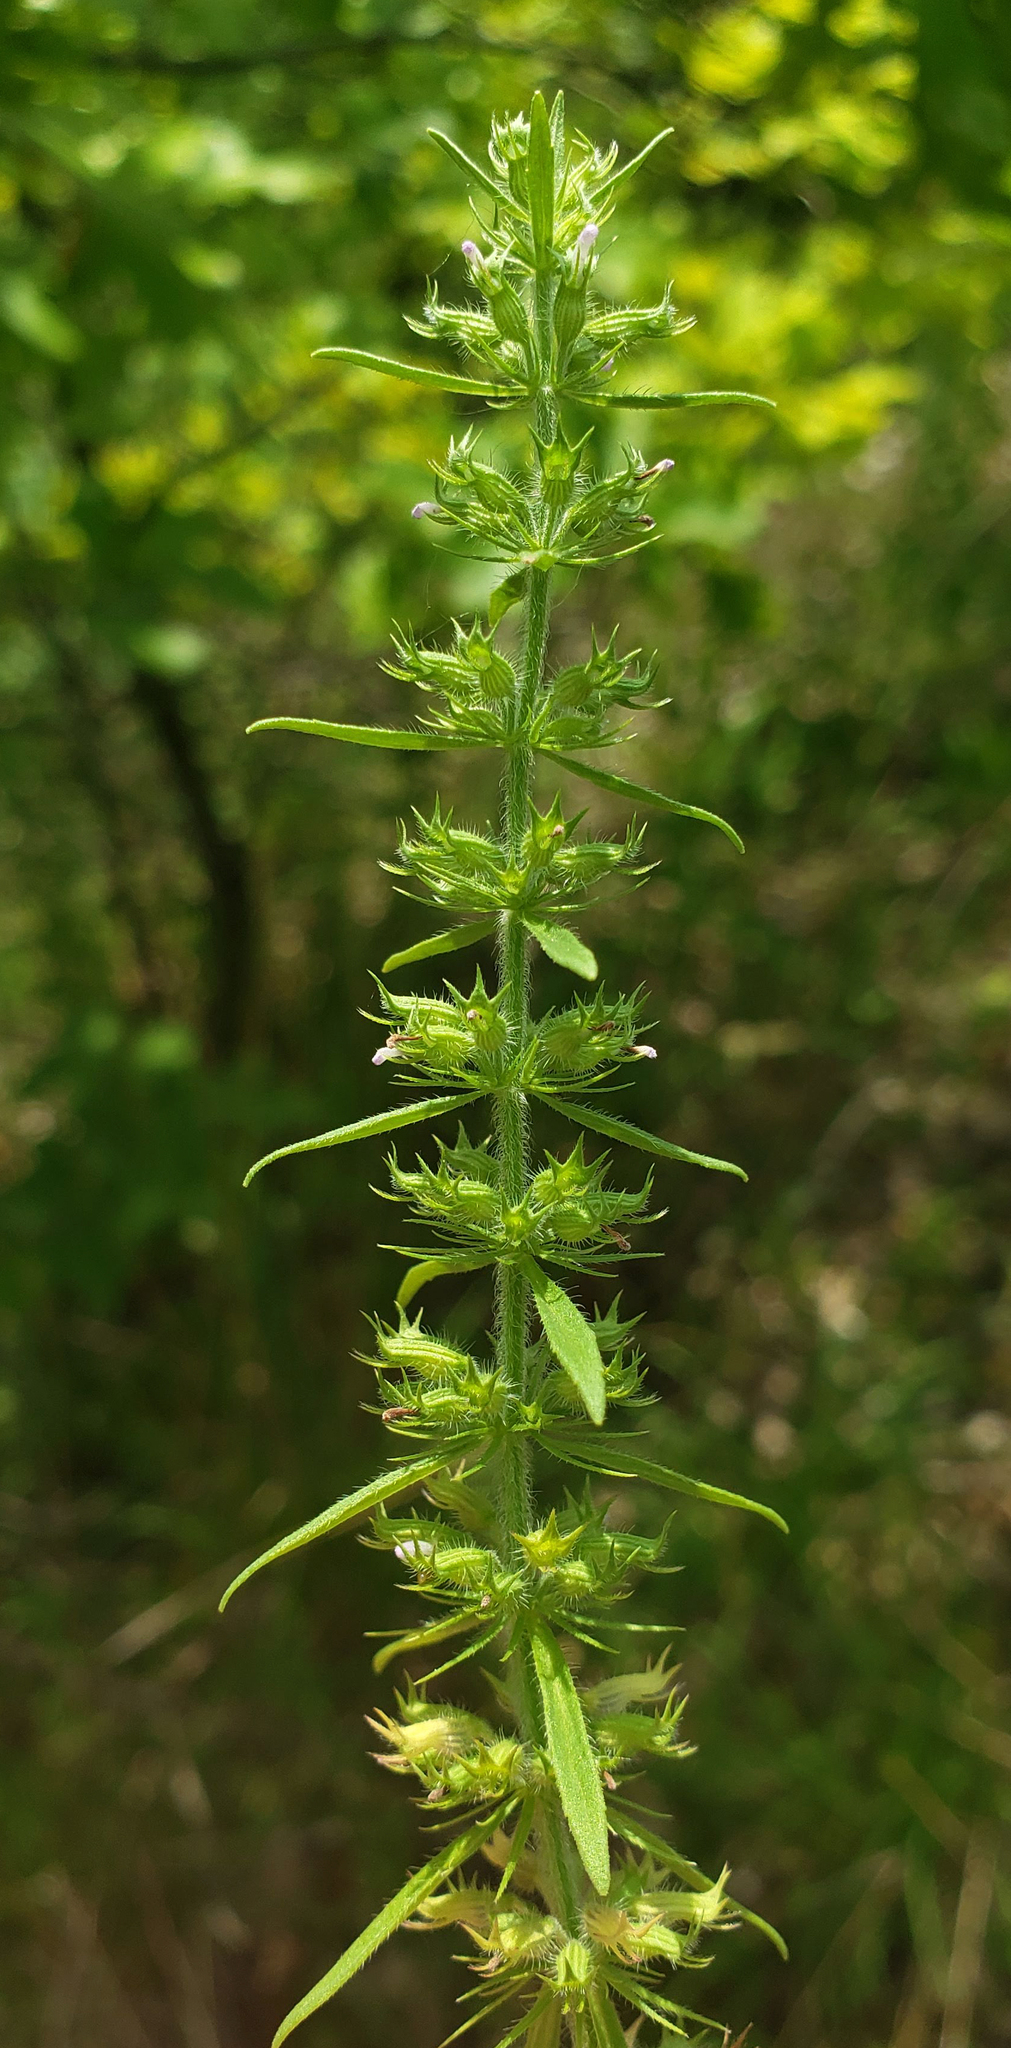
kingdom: Plantae
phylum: Tracheophyta
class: Magnoliopsida
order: Lamiales
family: Lamiaceae
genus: Hedeoma
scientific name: Hedeoma hispida
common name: Mock pennyroyal
